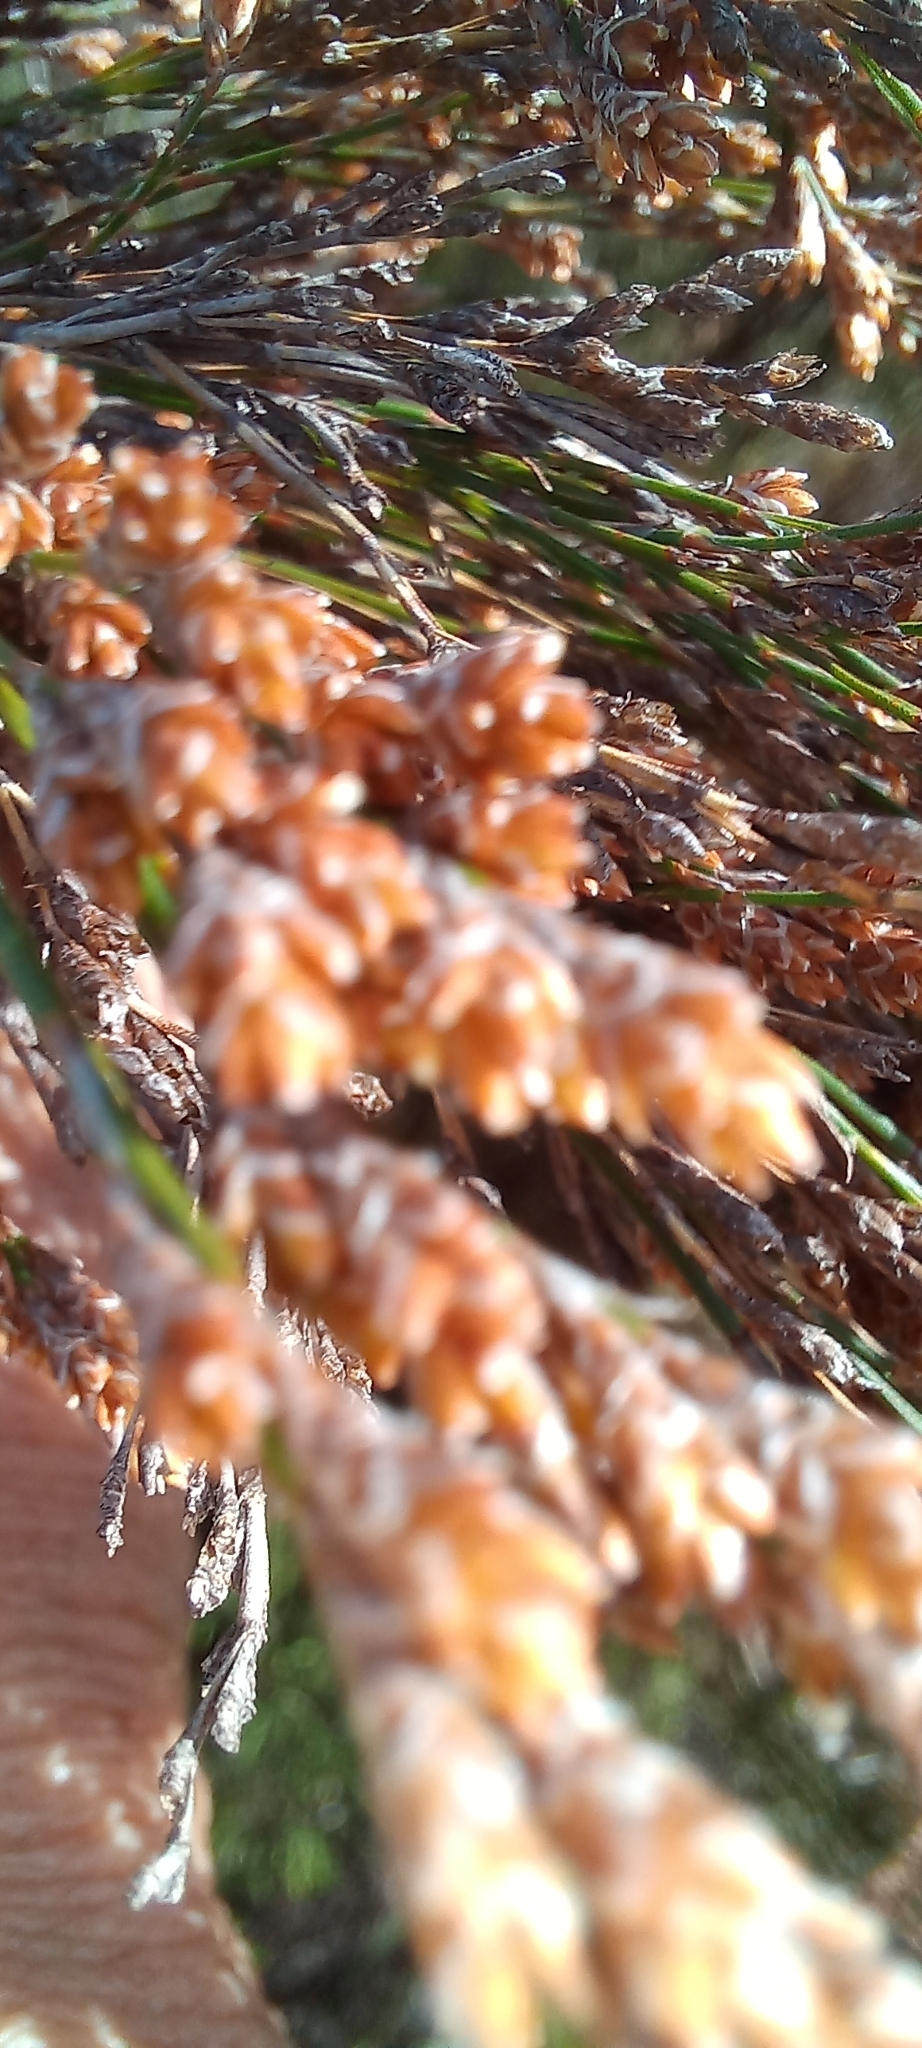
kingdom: Plantae
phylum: Tracheophyta
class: Liliopsida
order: Poales
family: Restionaceae
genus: Restio
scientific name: Restio paniculatus
